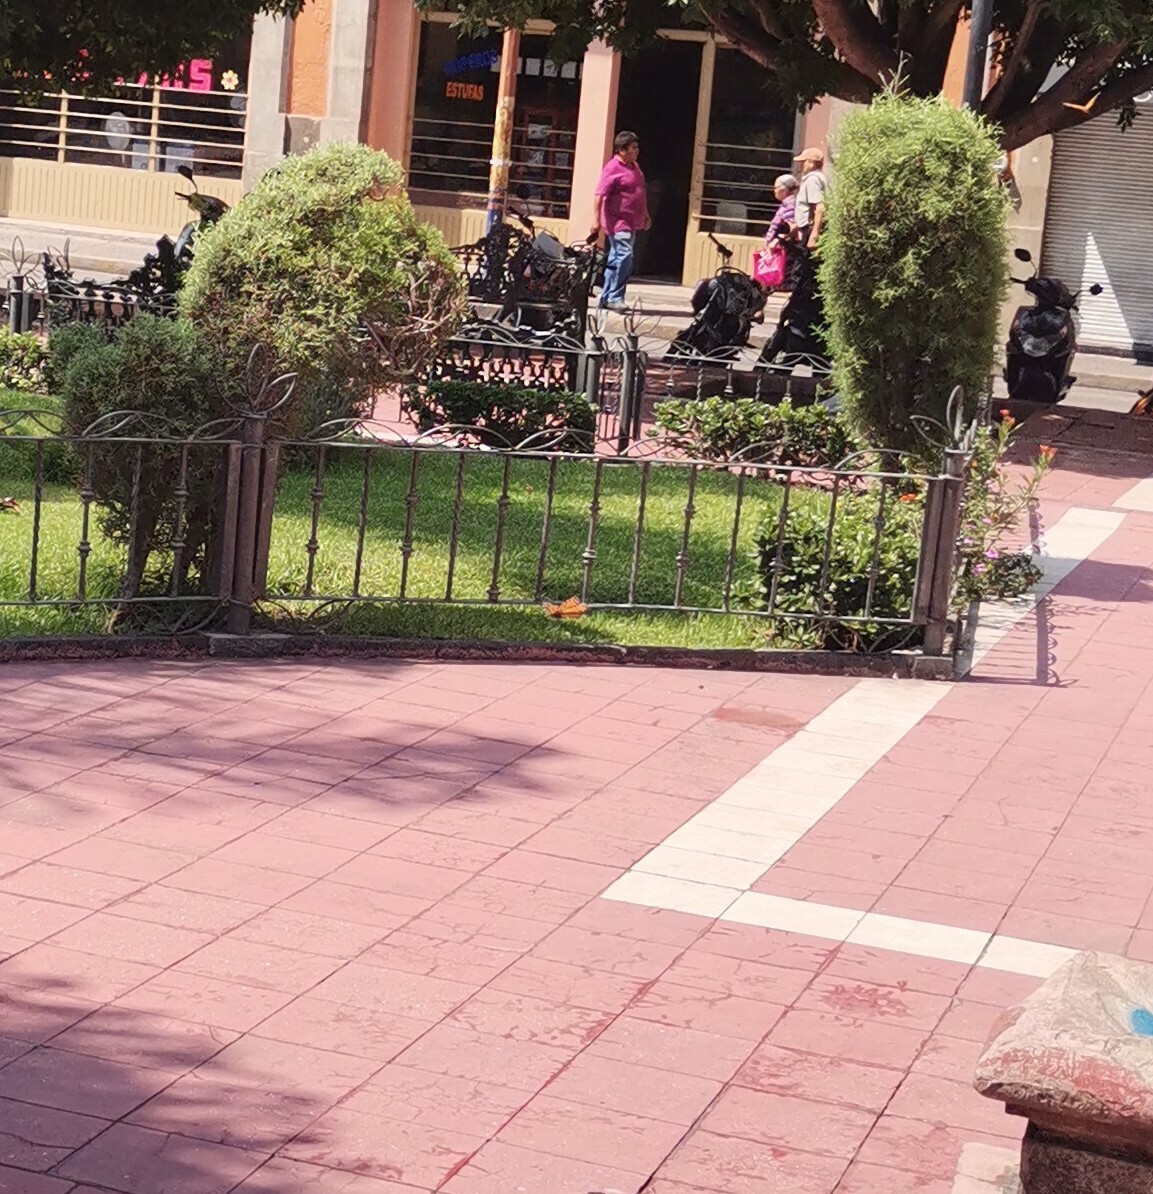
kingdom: Animalia
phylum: Arthropoda
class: Insecta
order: Lepidoptera
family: Nymphalidae
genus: Danaus
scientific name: Danaus plexippus
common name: Monarch
